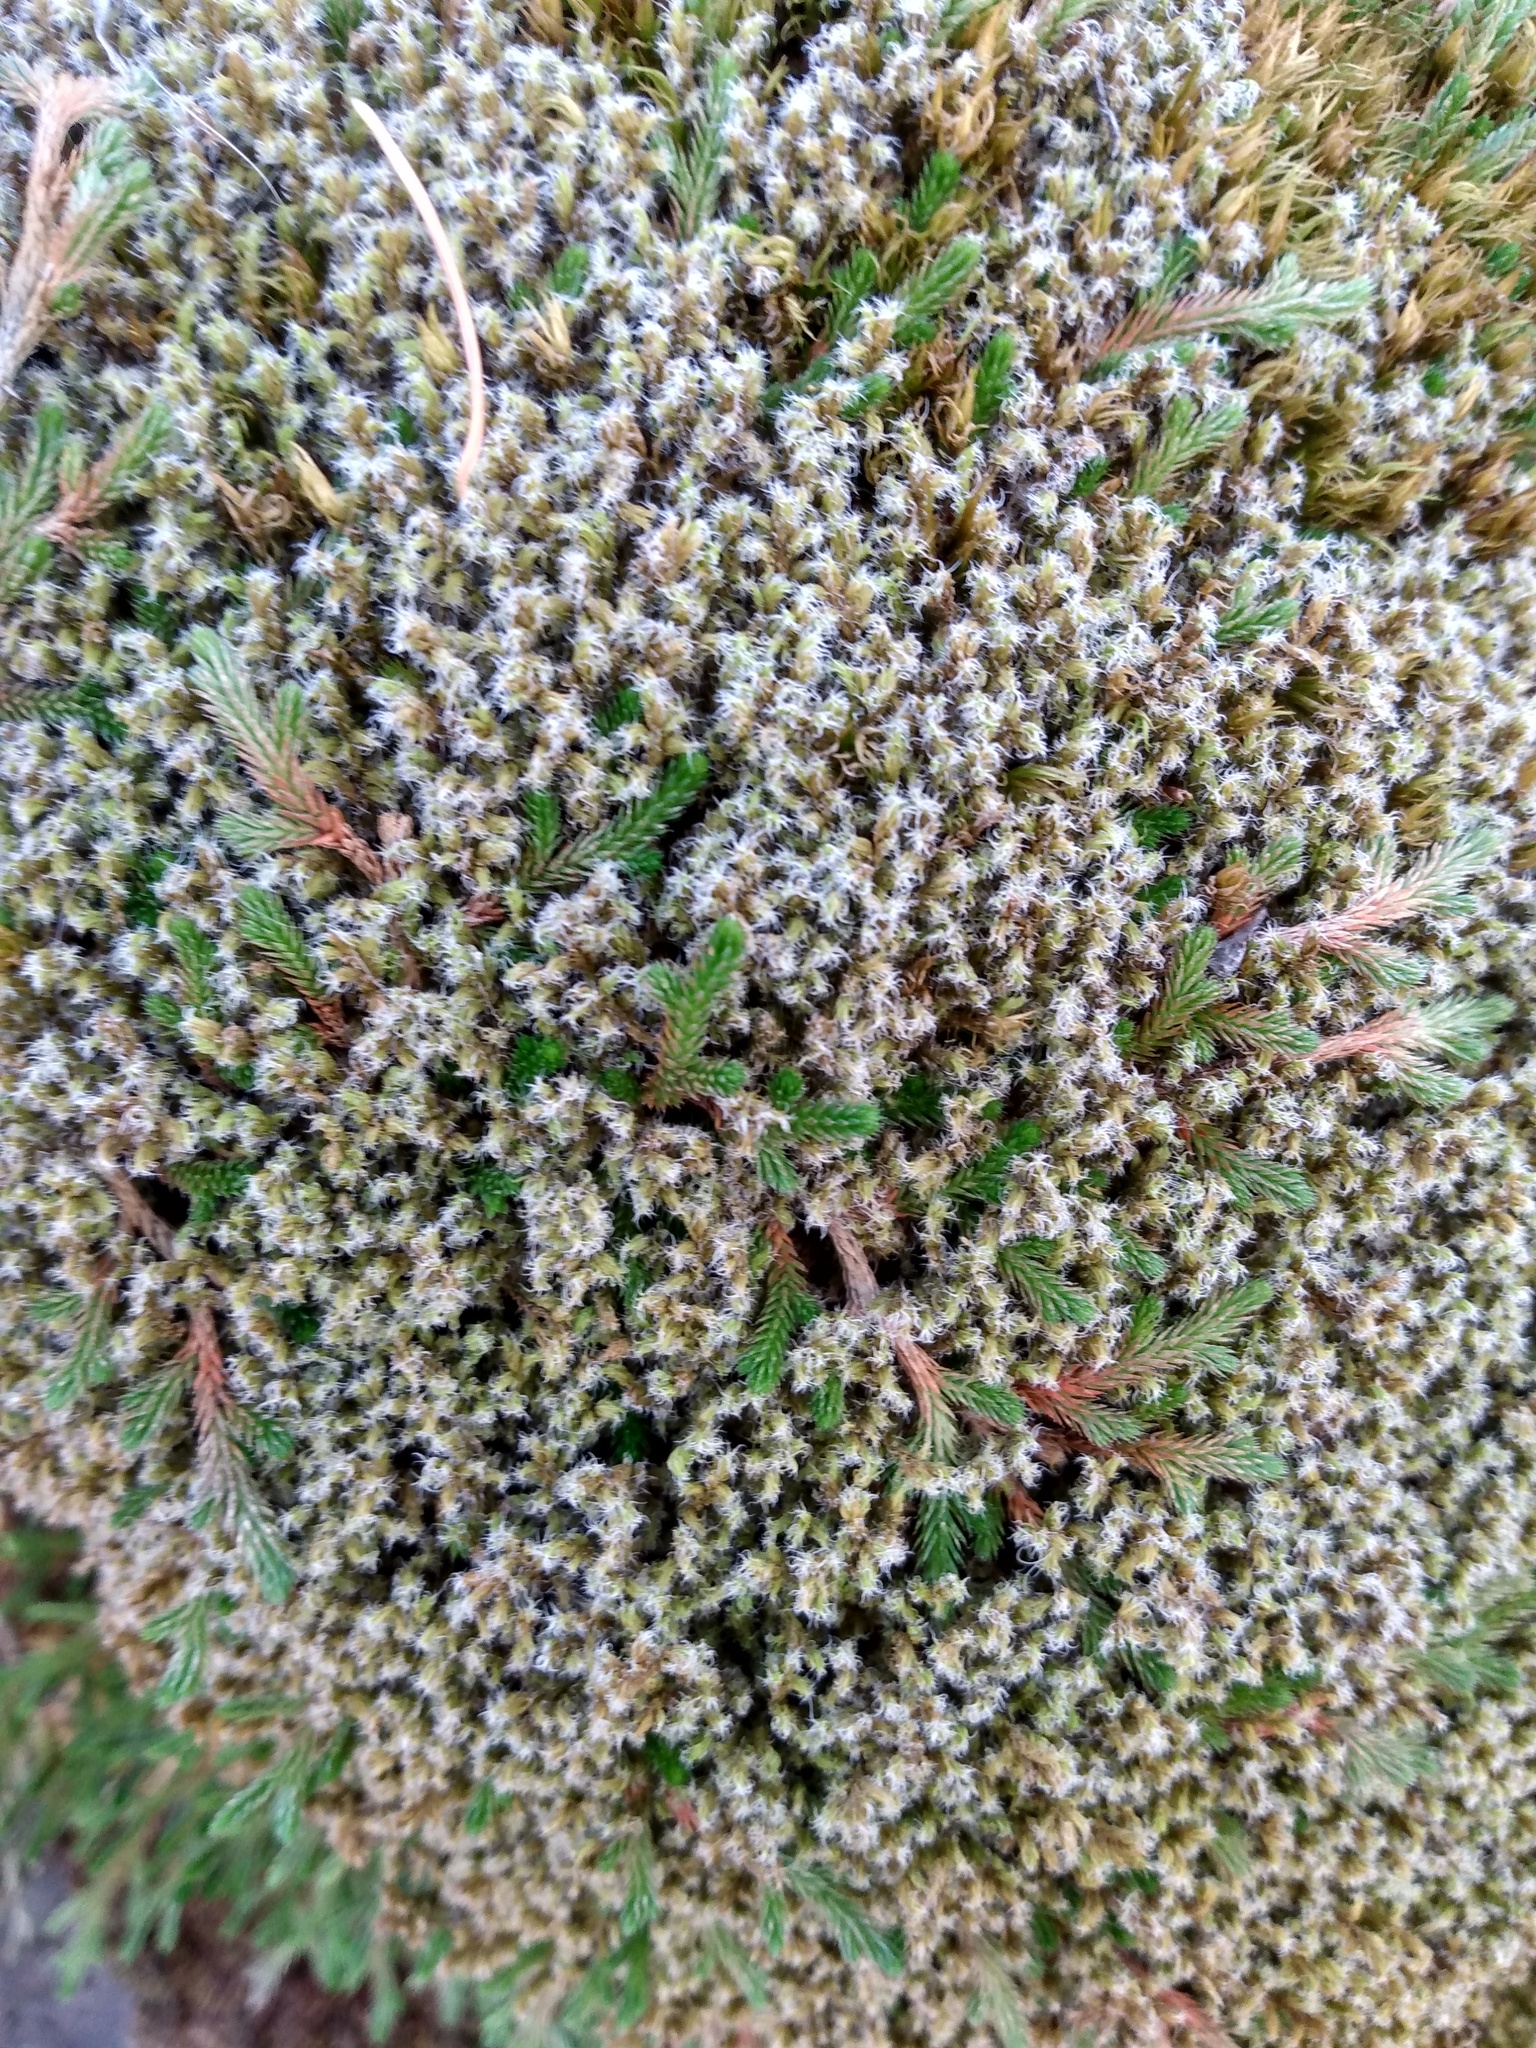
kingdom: Plantae
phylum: Tracheophyta
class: Lycopodiopsida
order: Selaginellales
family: Selaginellaceae
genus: Selaginella
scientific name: Selaginella wallacei
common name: Wallace's selaginella
